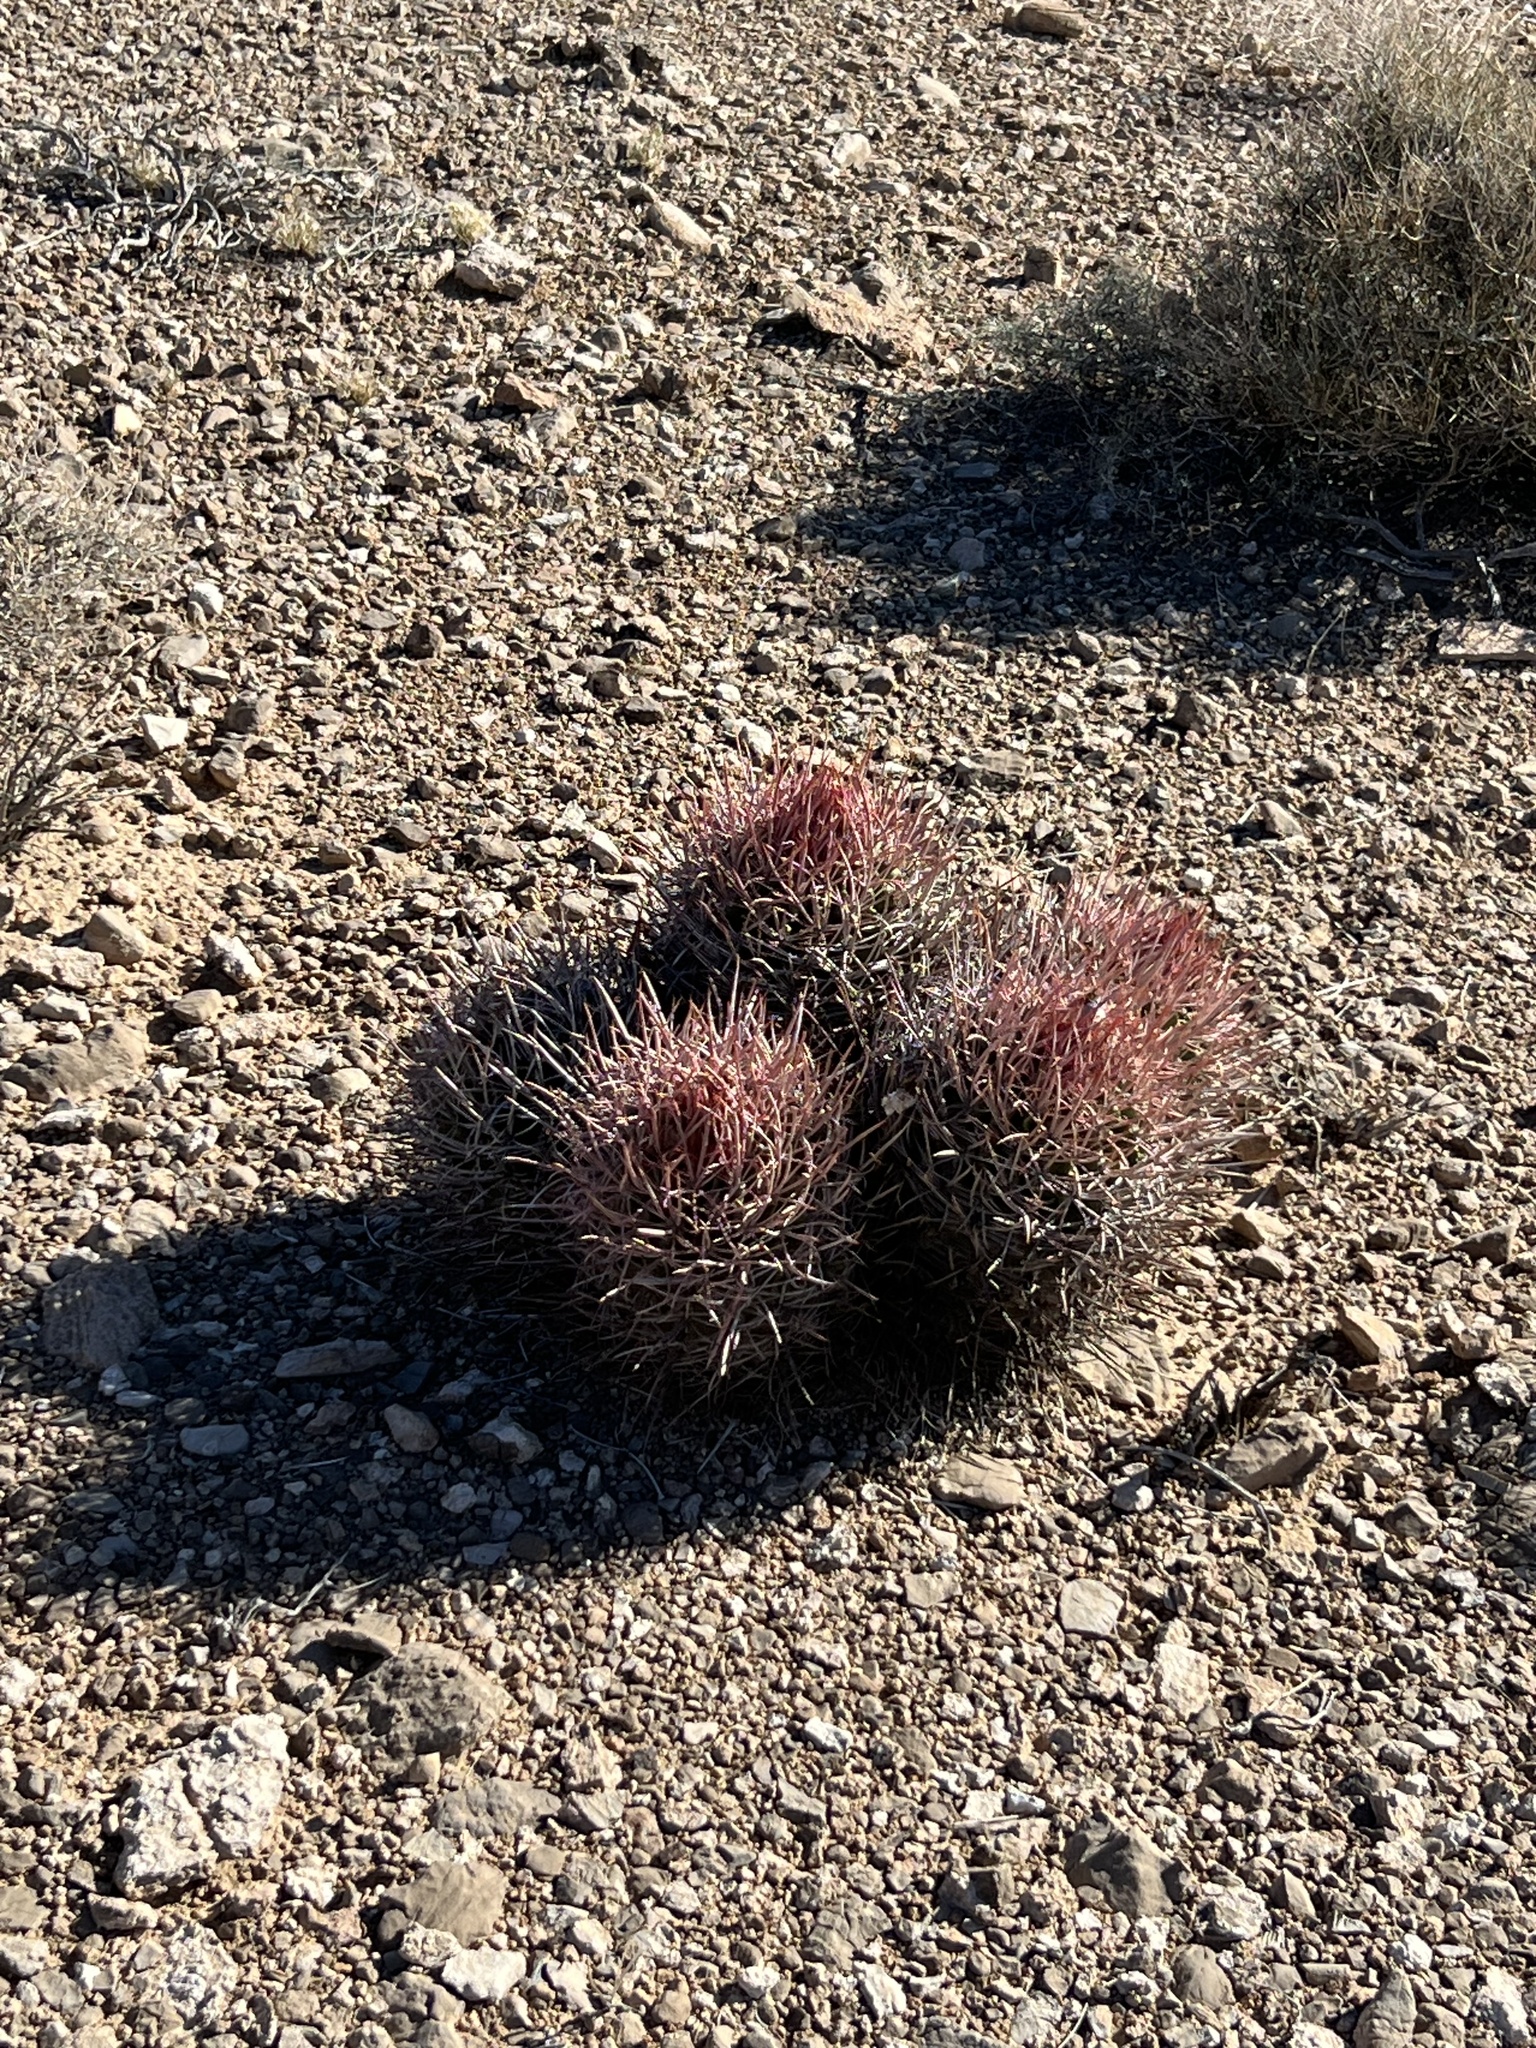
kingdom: Plantae
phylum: Tracheophyta
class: Magnoliopsida
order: Caryophyllales
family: Cactaceae
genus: Echinocactus
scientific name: Echinocactus polycephalus
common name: Cottontop cactus
